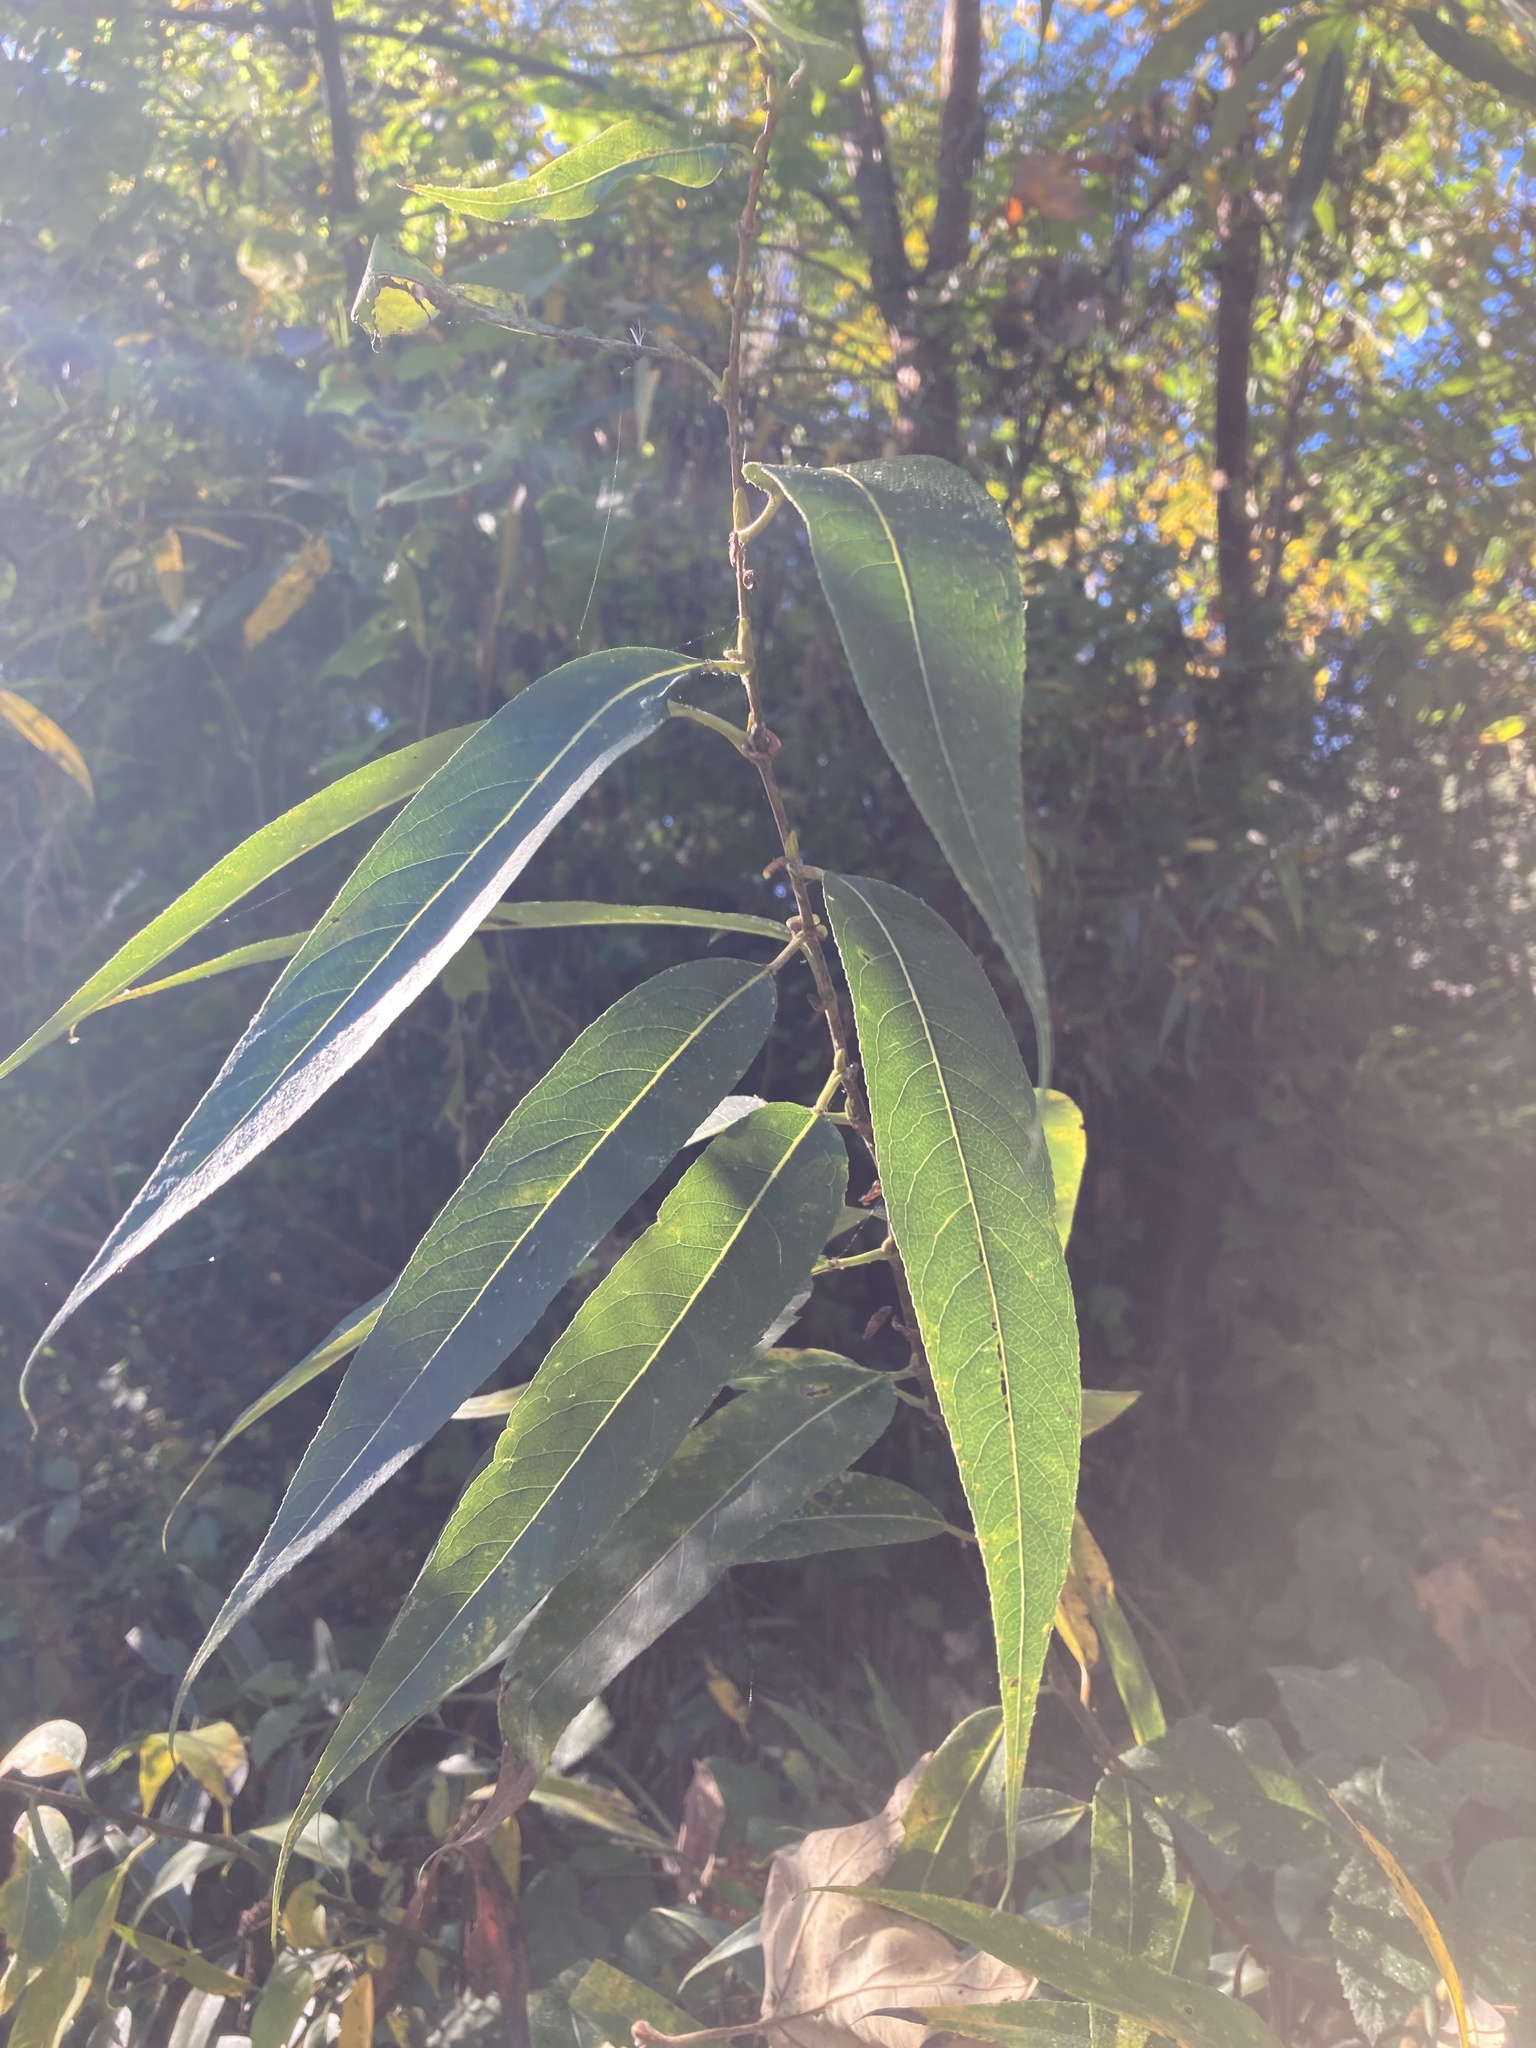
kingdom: Plantae
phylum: Tracheophyta
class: Magnoliopsida
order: Malpighiales
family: Salicaceae
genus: Salix
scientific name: Salix lucida
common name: Shining willow
